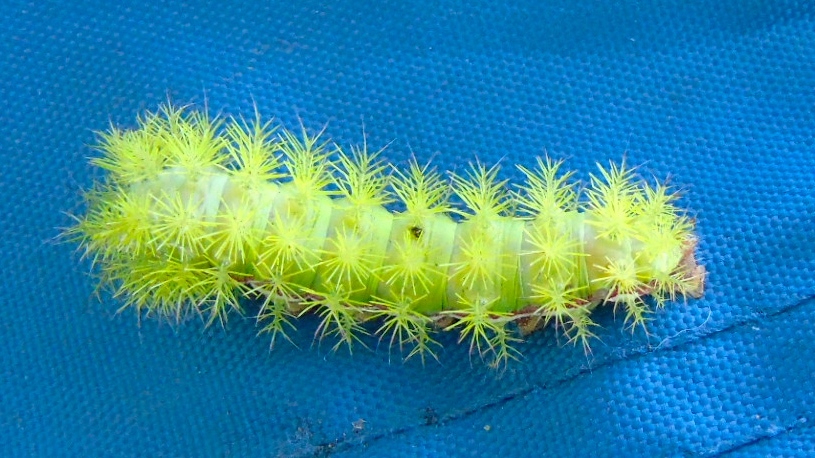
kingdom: Animalia
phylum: Arthropoda
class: Insecta
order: Lepidoptera
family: Saturniidae
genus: Automeris
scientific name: Automeris
